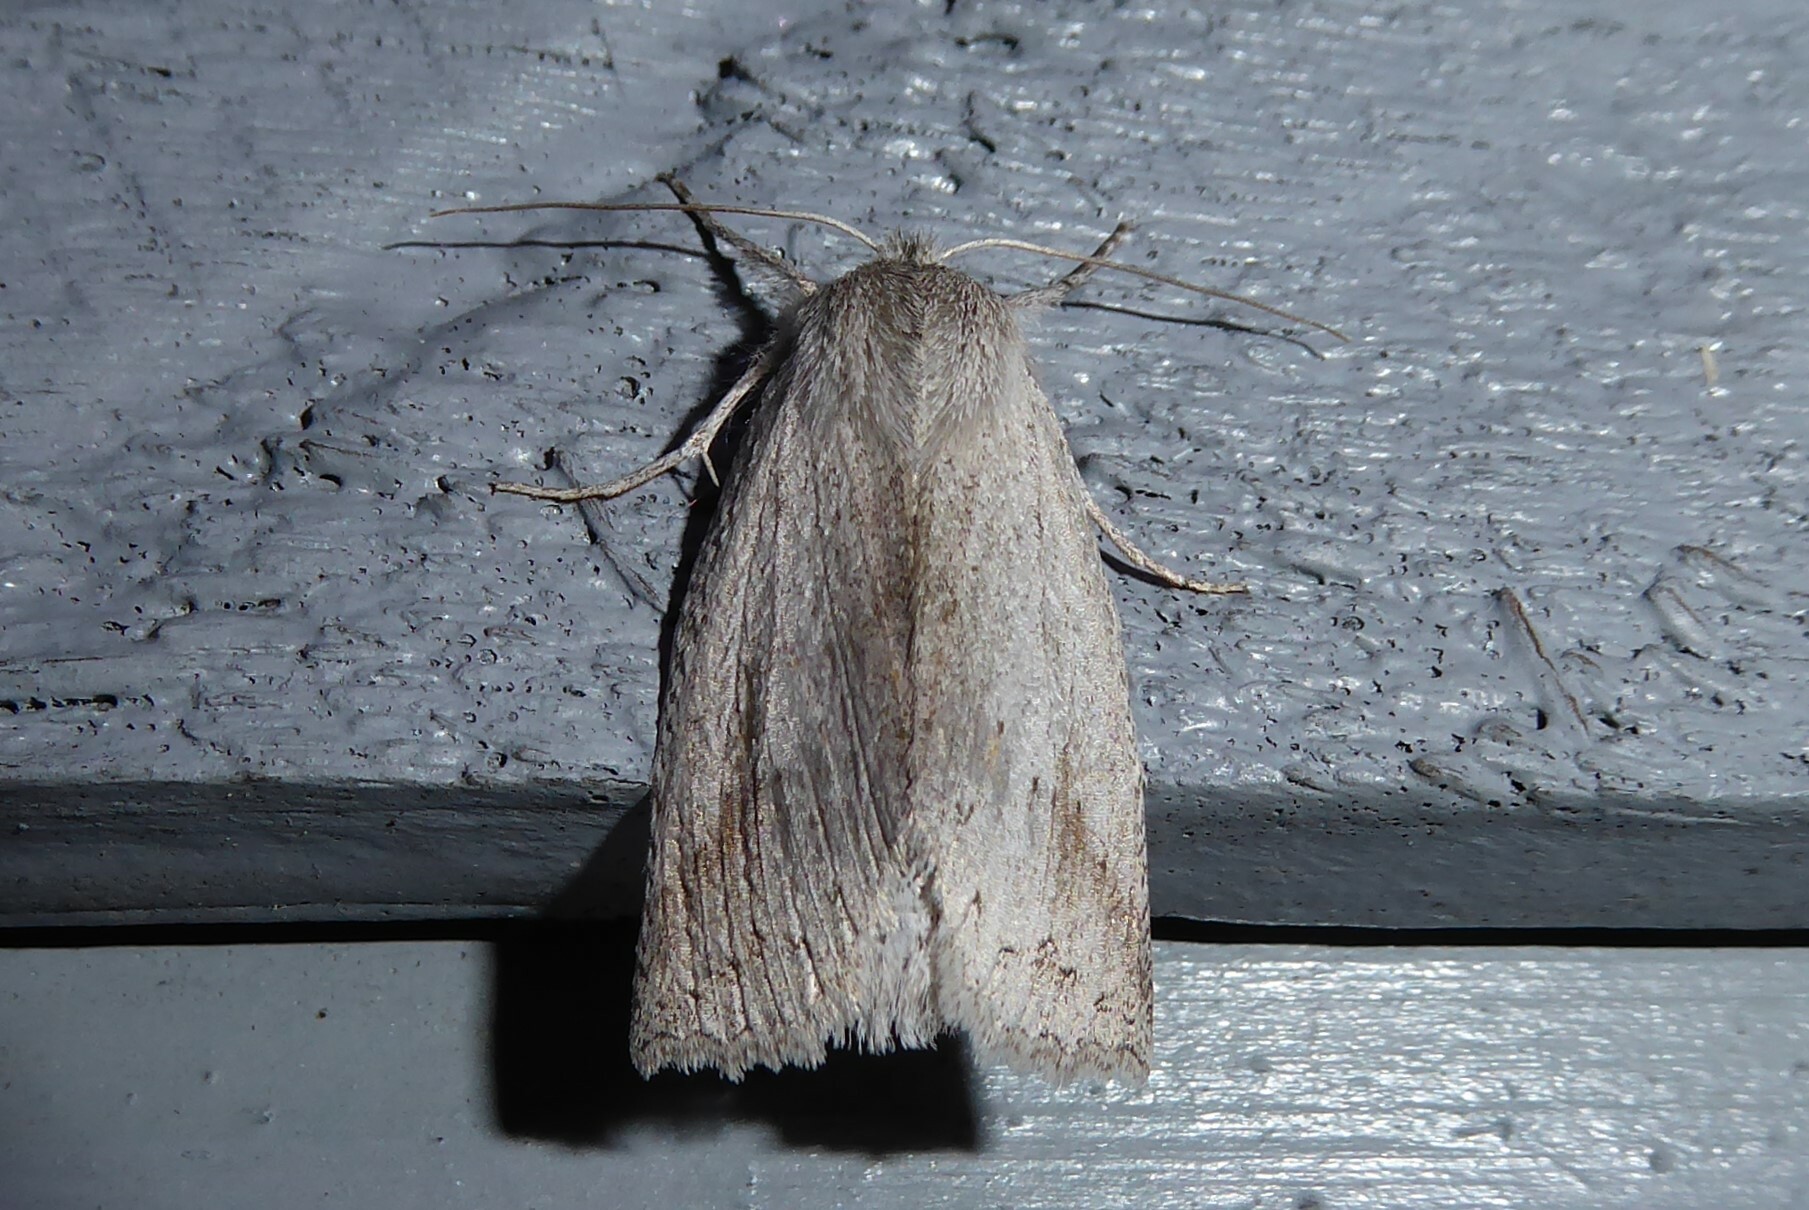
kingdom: Animalia
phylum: Arthropoda
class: Insecta
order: Lepidoptera
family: Geometridae
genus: Declana
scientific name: Declana leptomera
